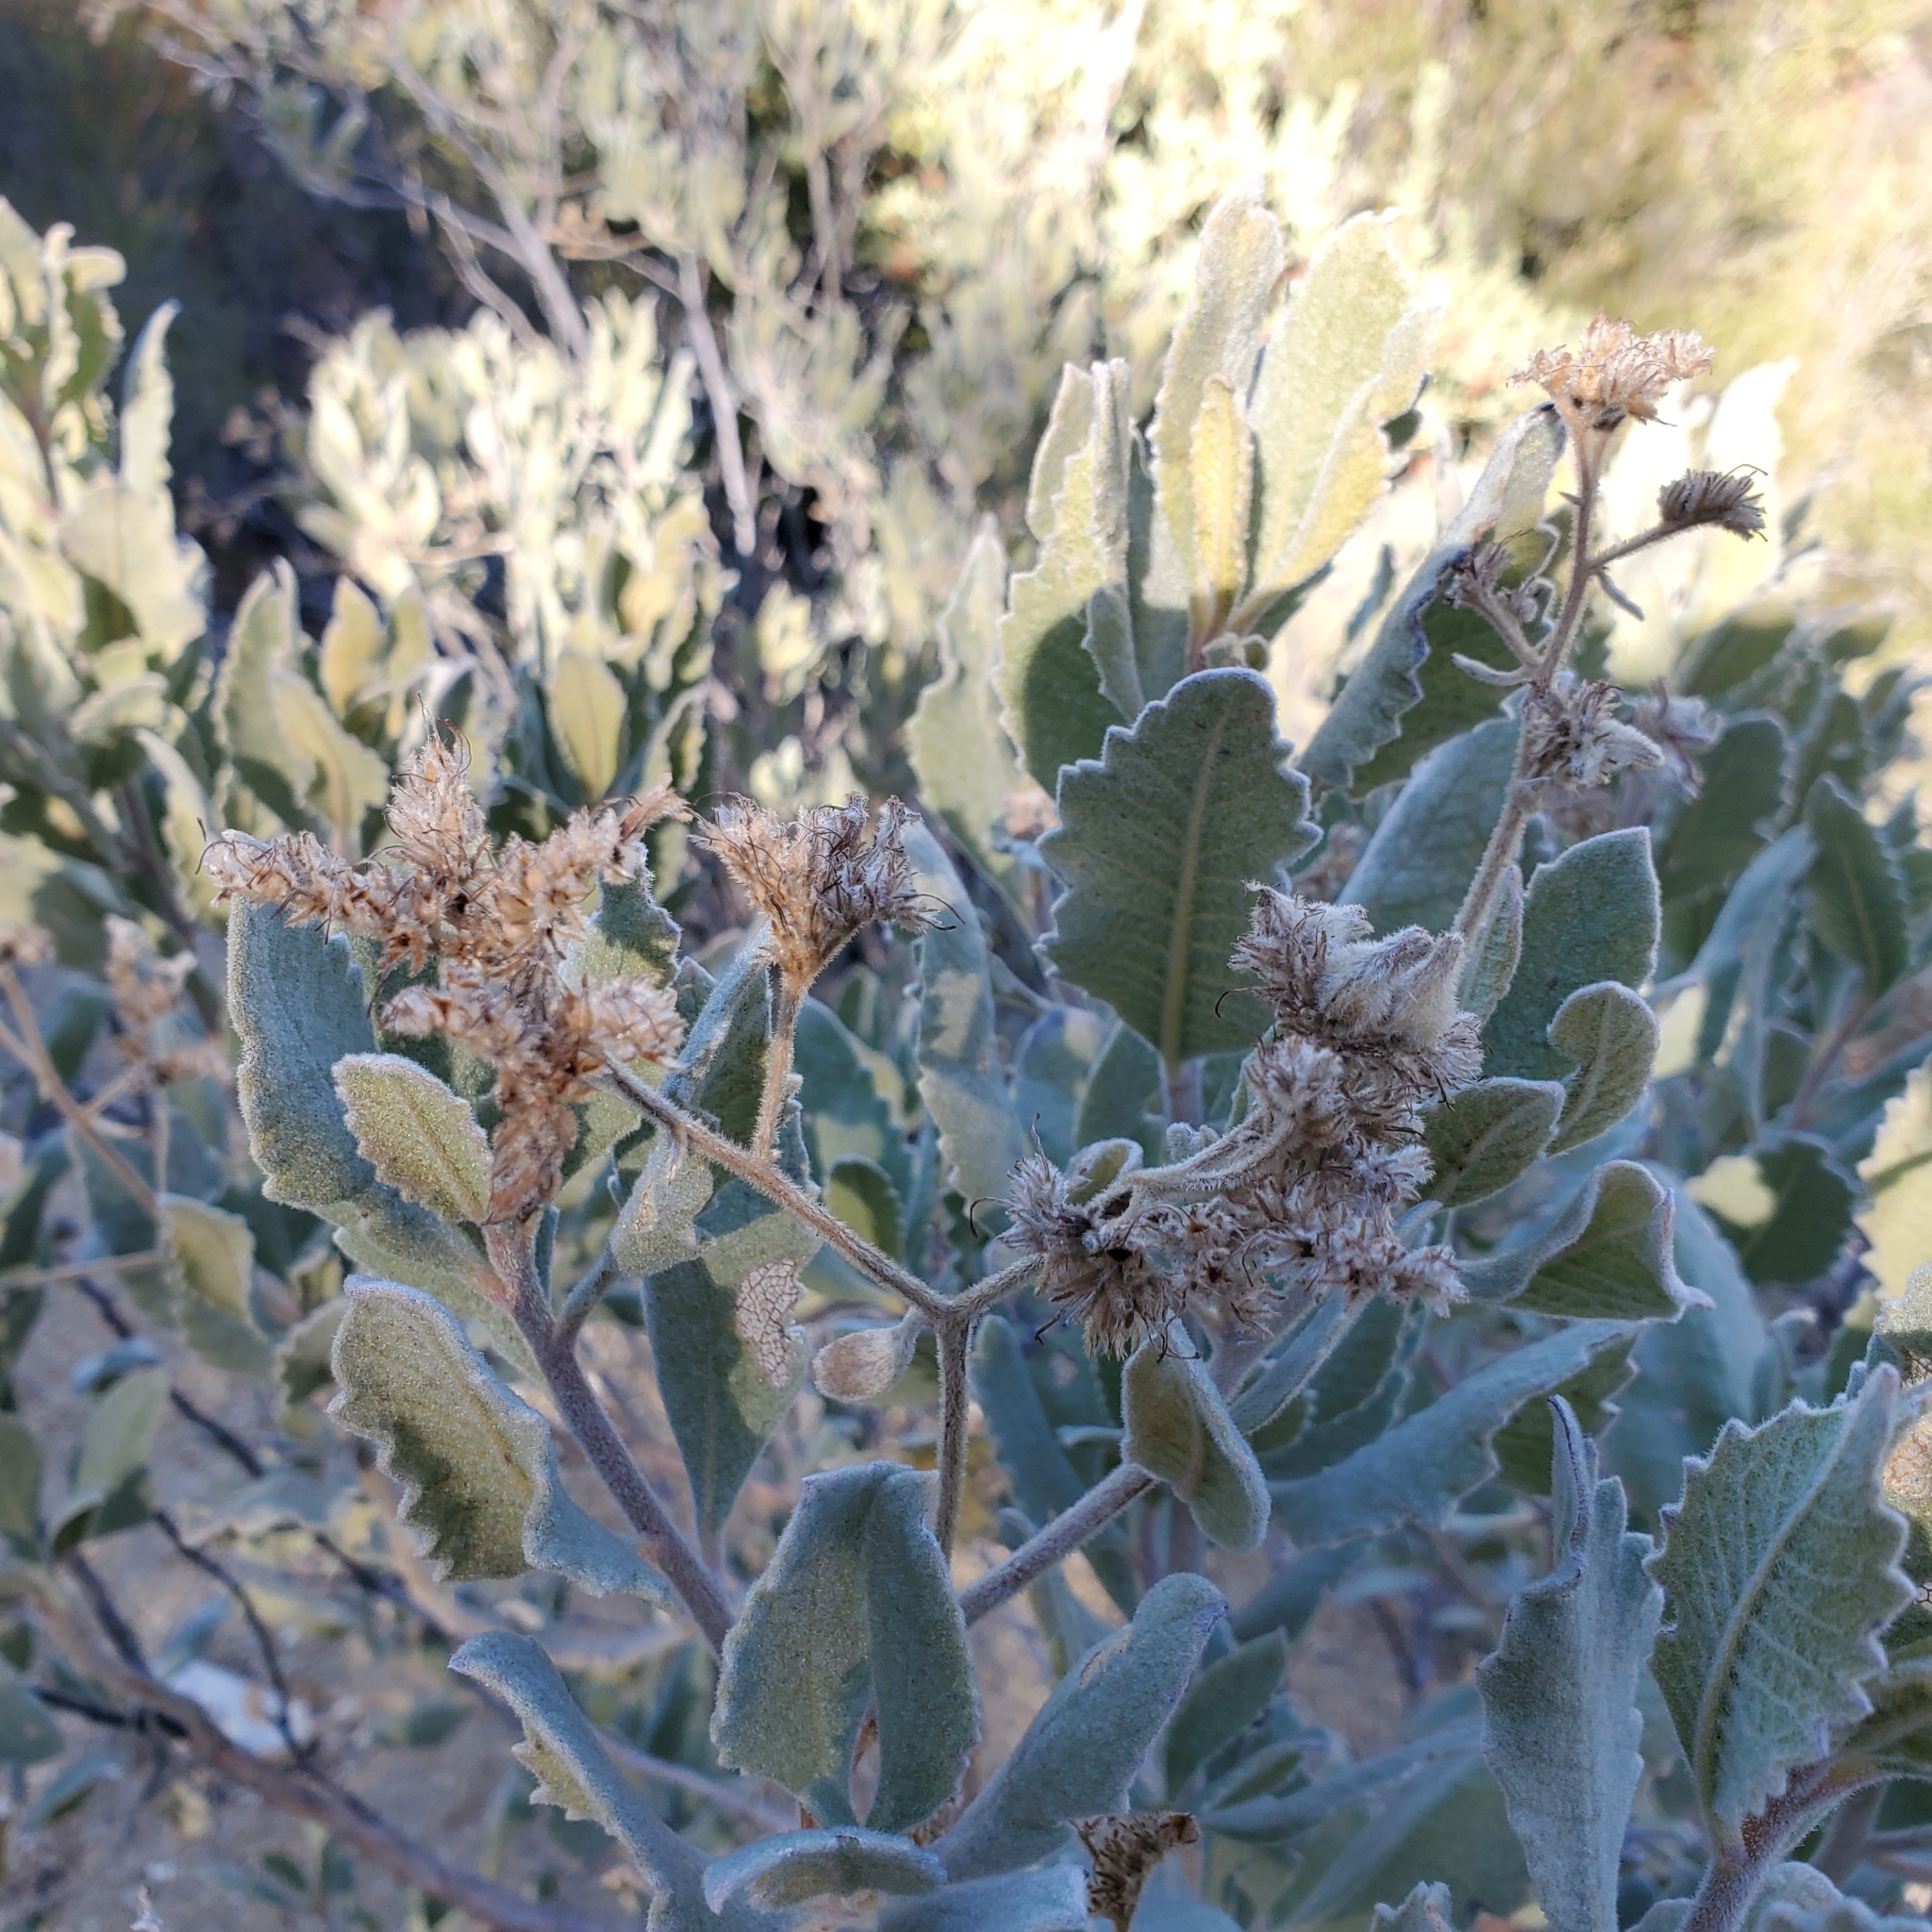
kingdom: Plantae
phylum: Tracheophyta
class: Magnoliopsida
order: Boraginales
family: Namaceae
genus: Eriodictyon
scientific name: Eriodictyon crassifolium
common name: Thick-leaf yerba-santa
